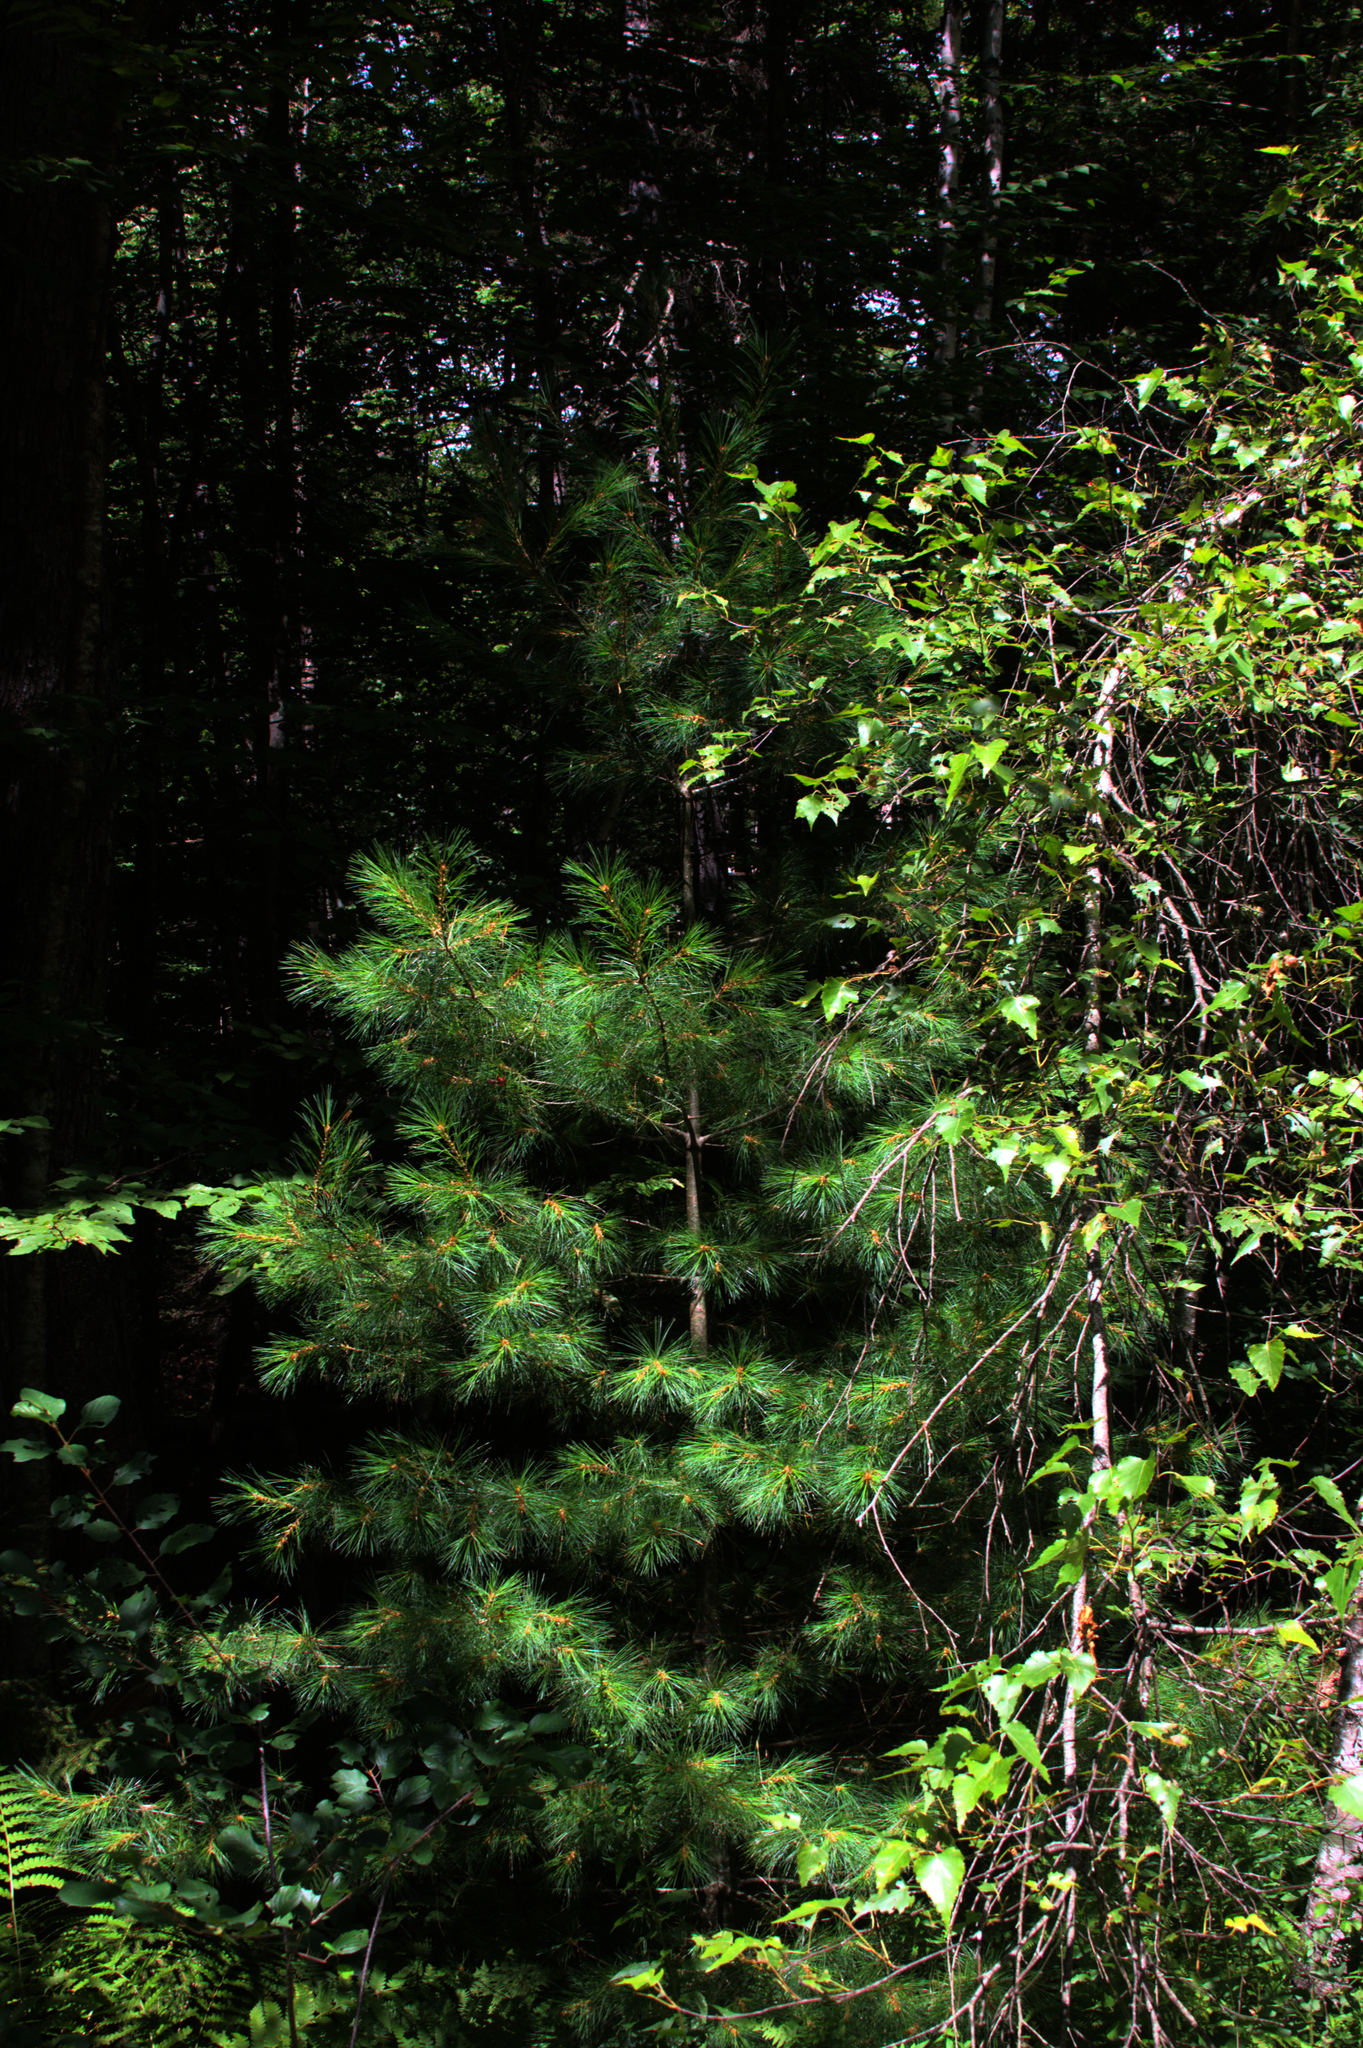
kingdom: Plantae
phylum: Tracheophyta
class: Pinopsida
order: Pinales
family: Pinaceae
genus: Pinus
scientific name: Pinus strobus
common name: Weymouth pine
